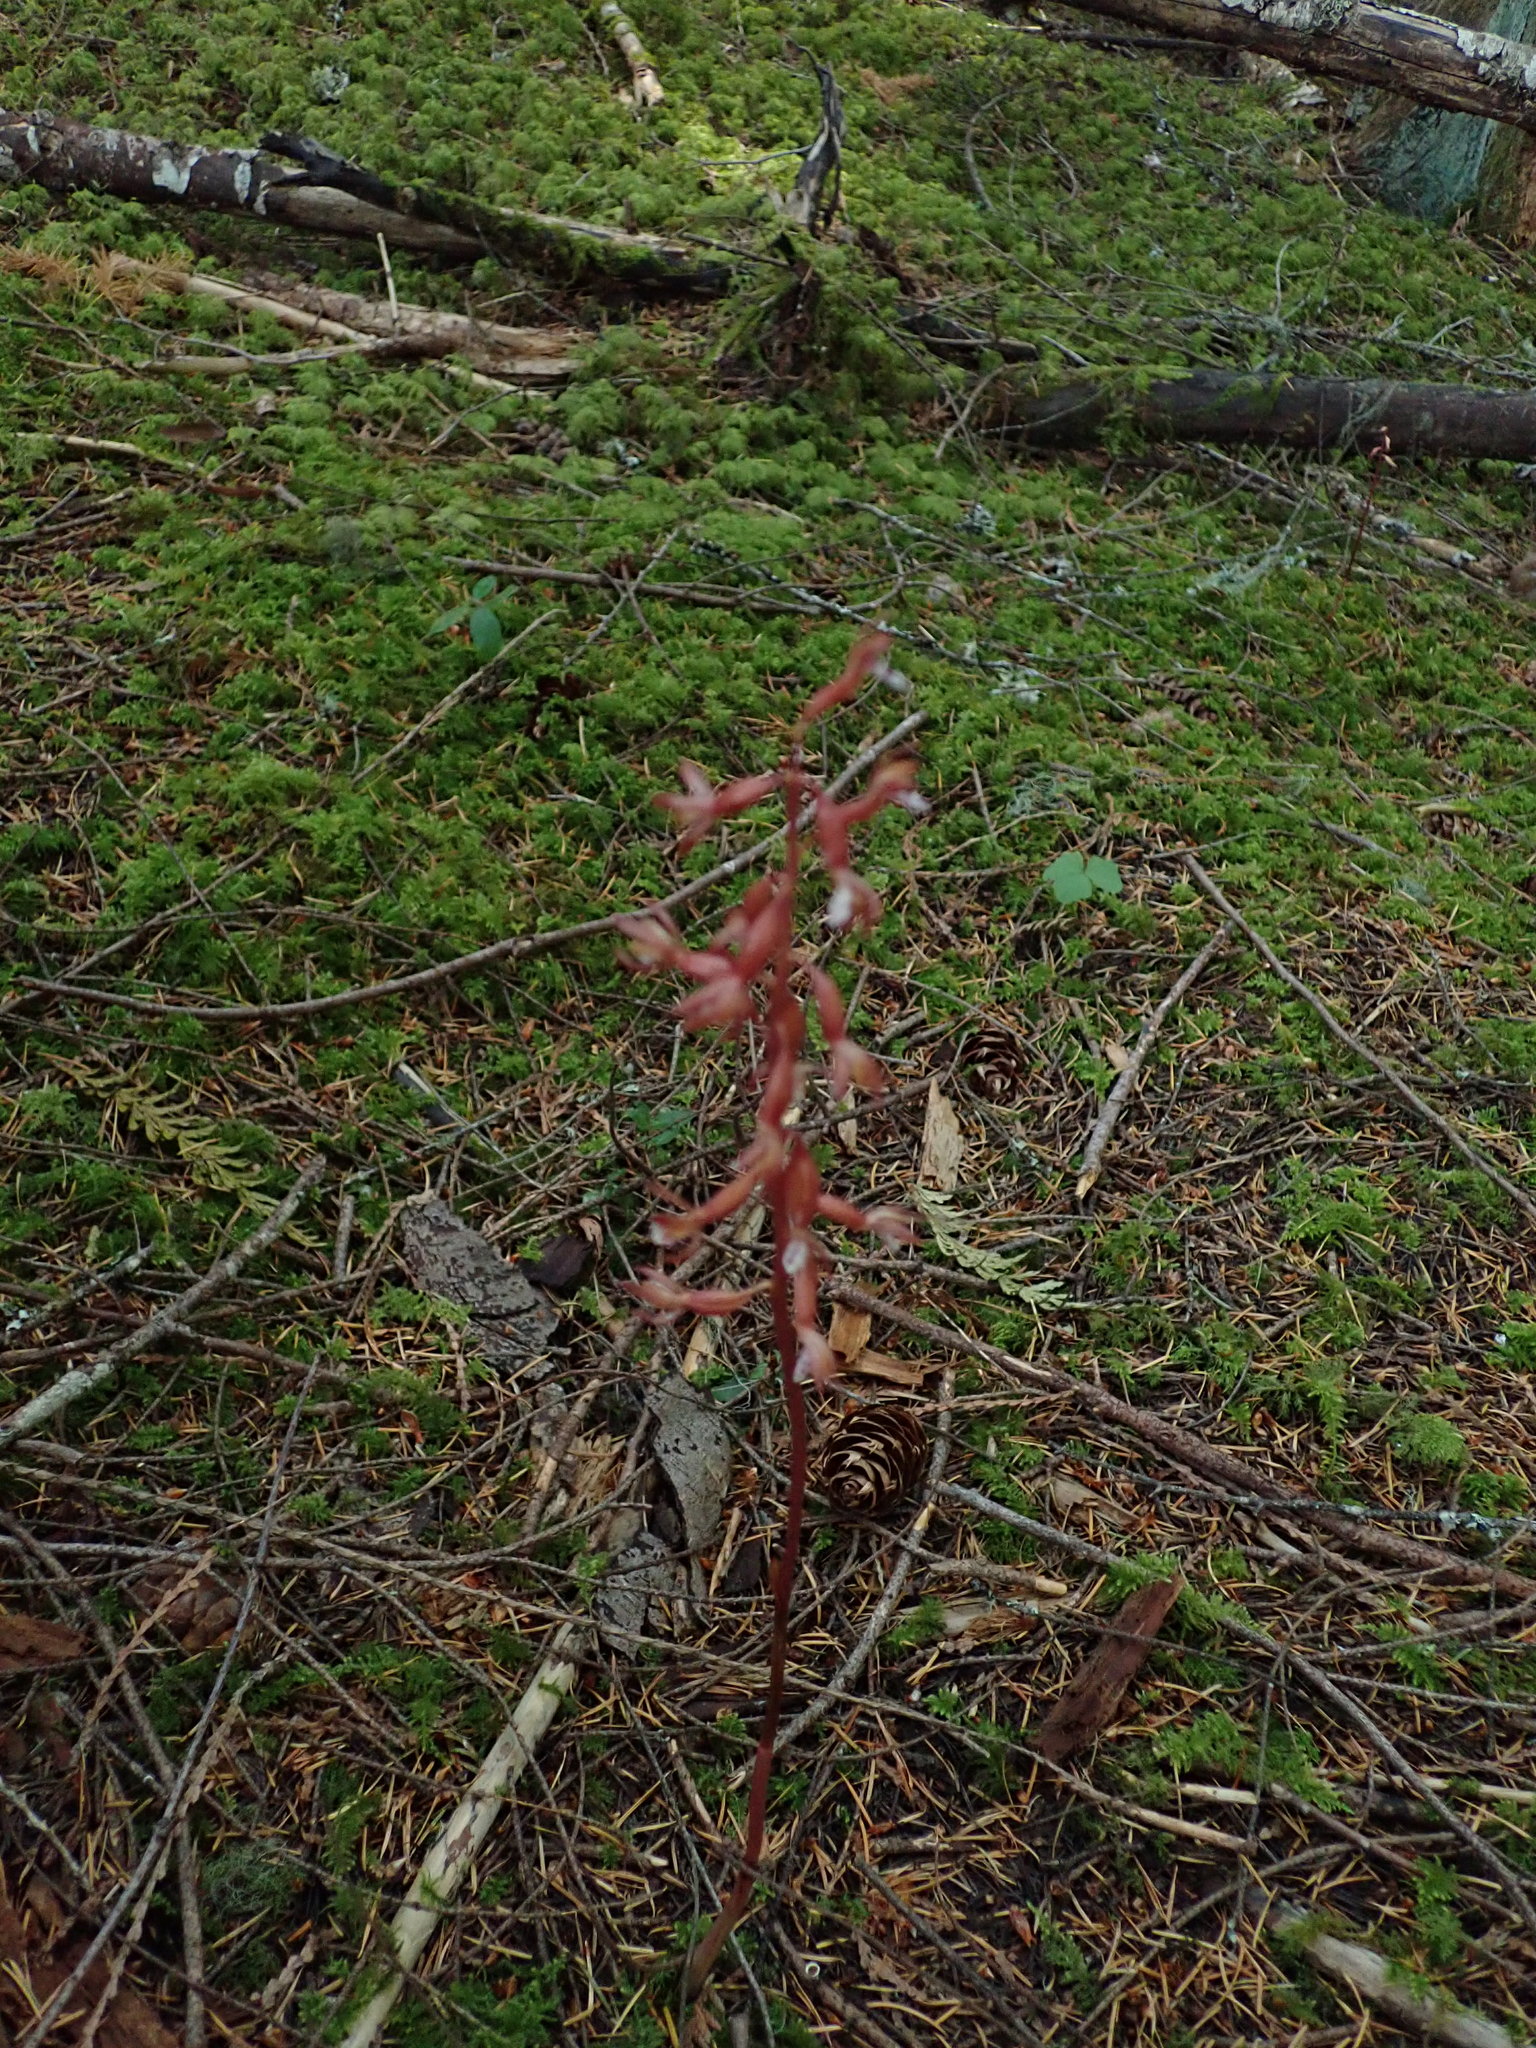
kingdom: Plantae
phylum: Tracheophyta
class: Liliopsida
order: Asparagales
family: Orchidaceae
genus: Corallorhiza
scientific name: Corallorhiza maculata
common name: Spotted coralroot
